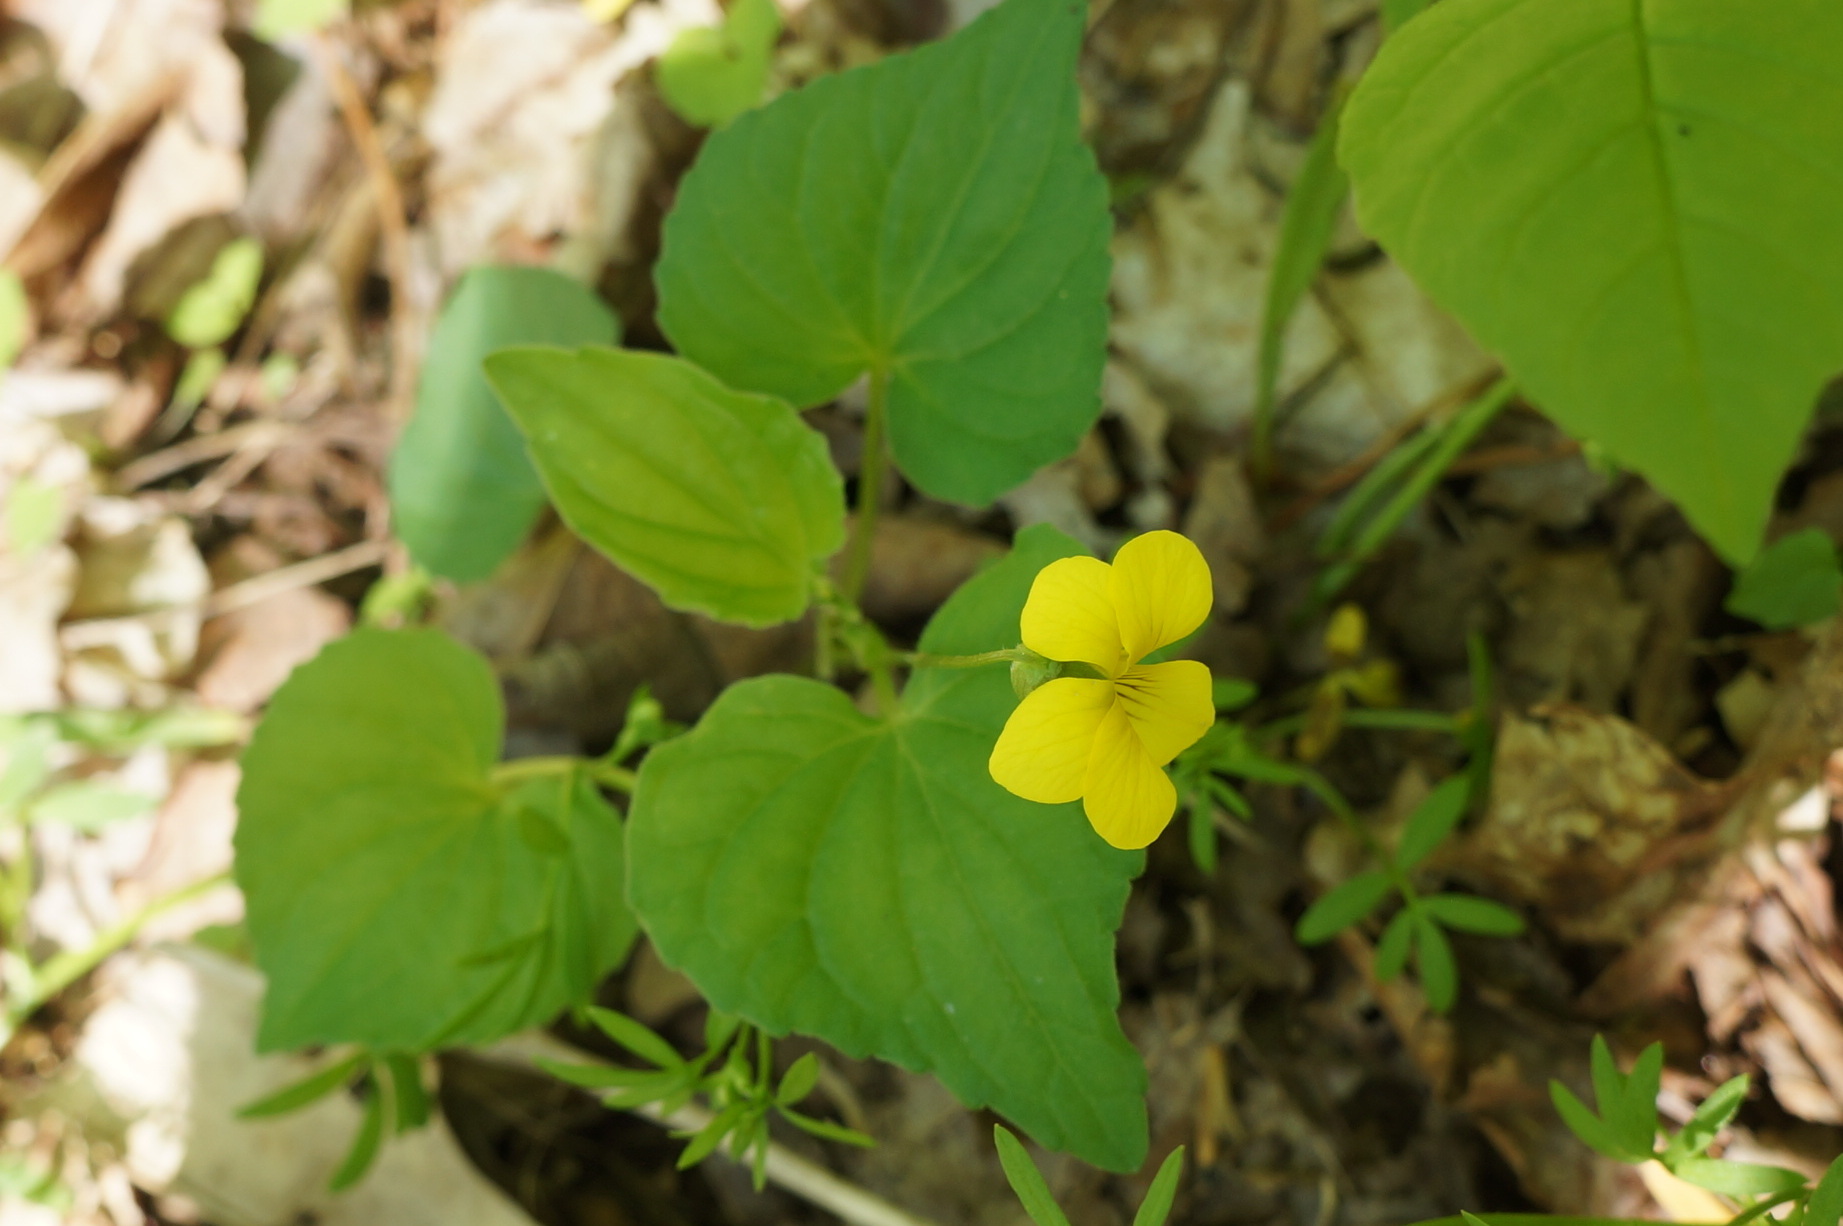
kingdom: Plantae
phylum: Tracheophyta
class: Magnoliopsida
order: Malpighiales
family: Violaceae
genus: Viola
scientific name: Viola eriocarpa
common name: Smooth yellow violet
